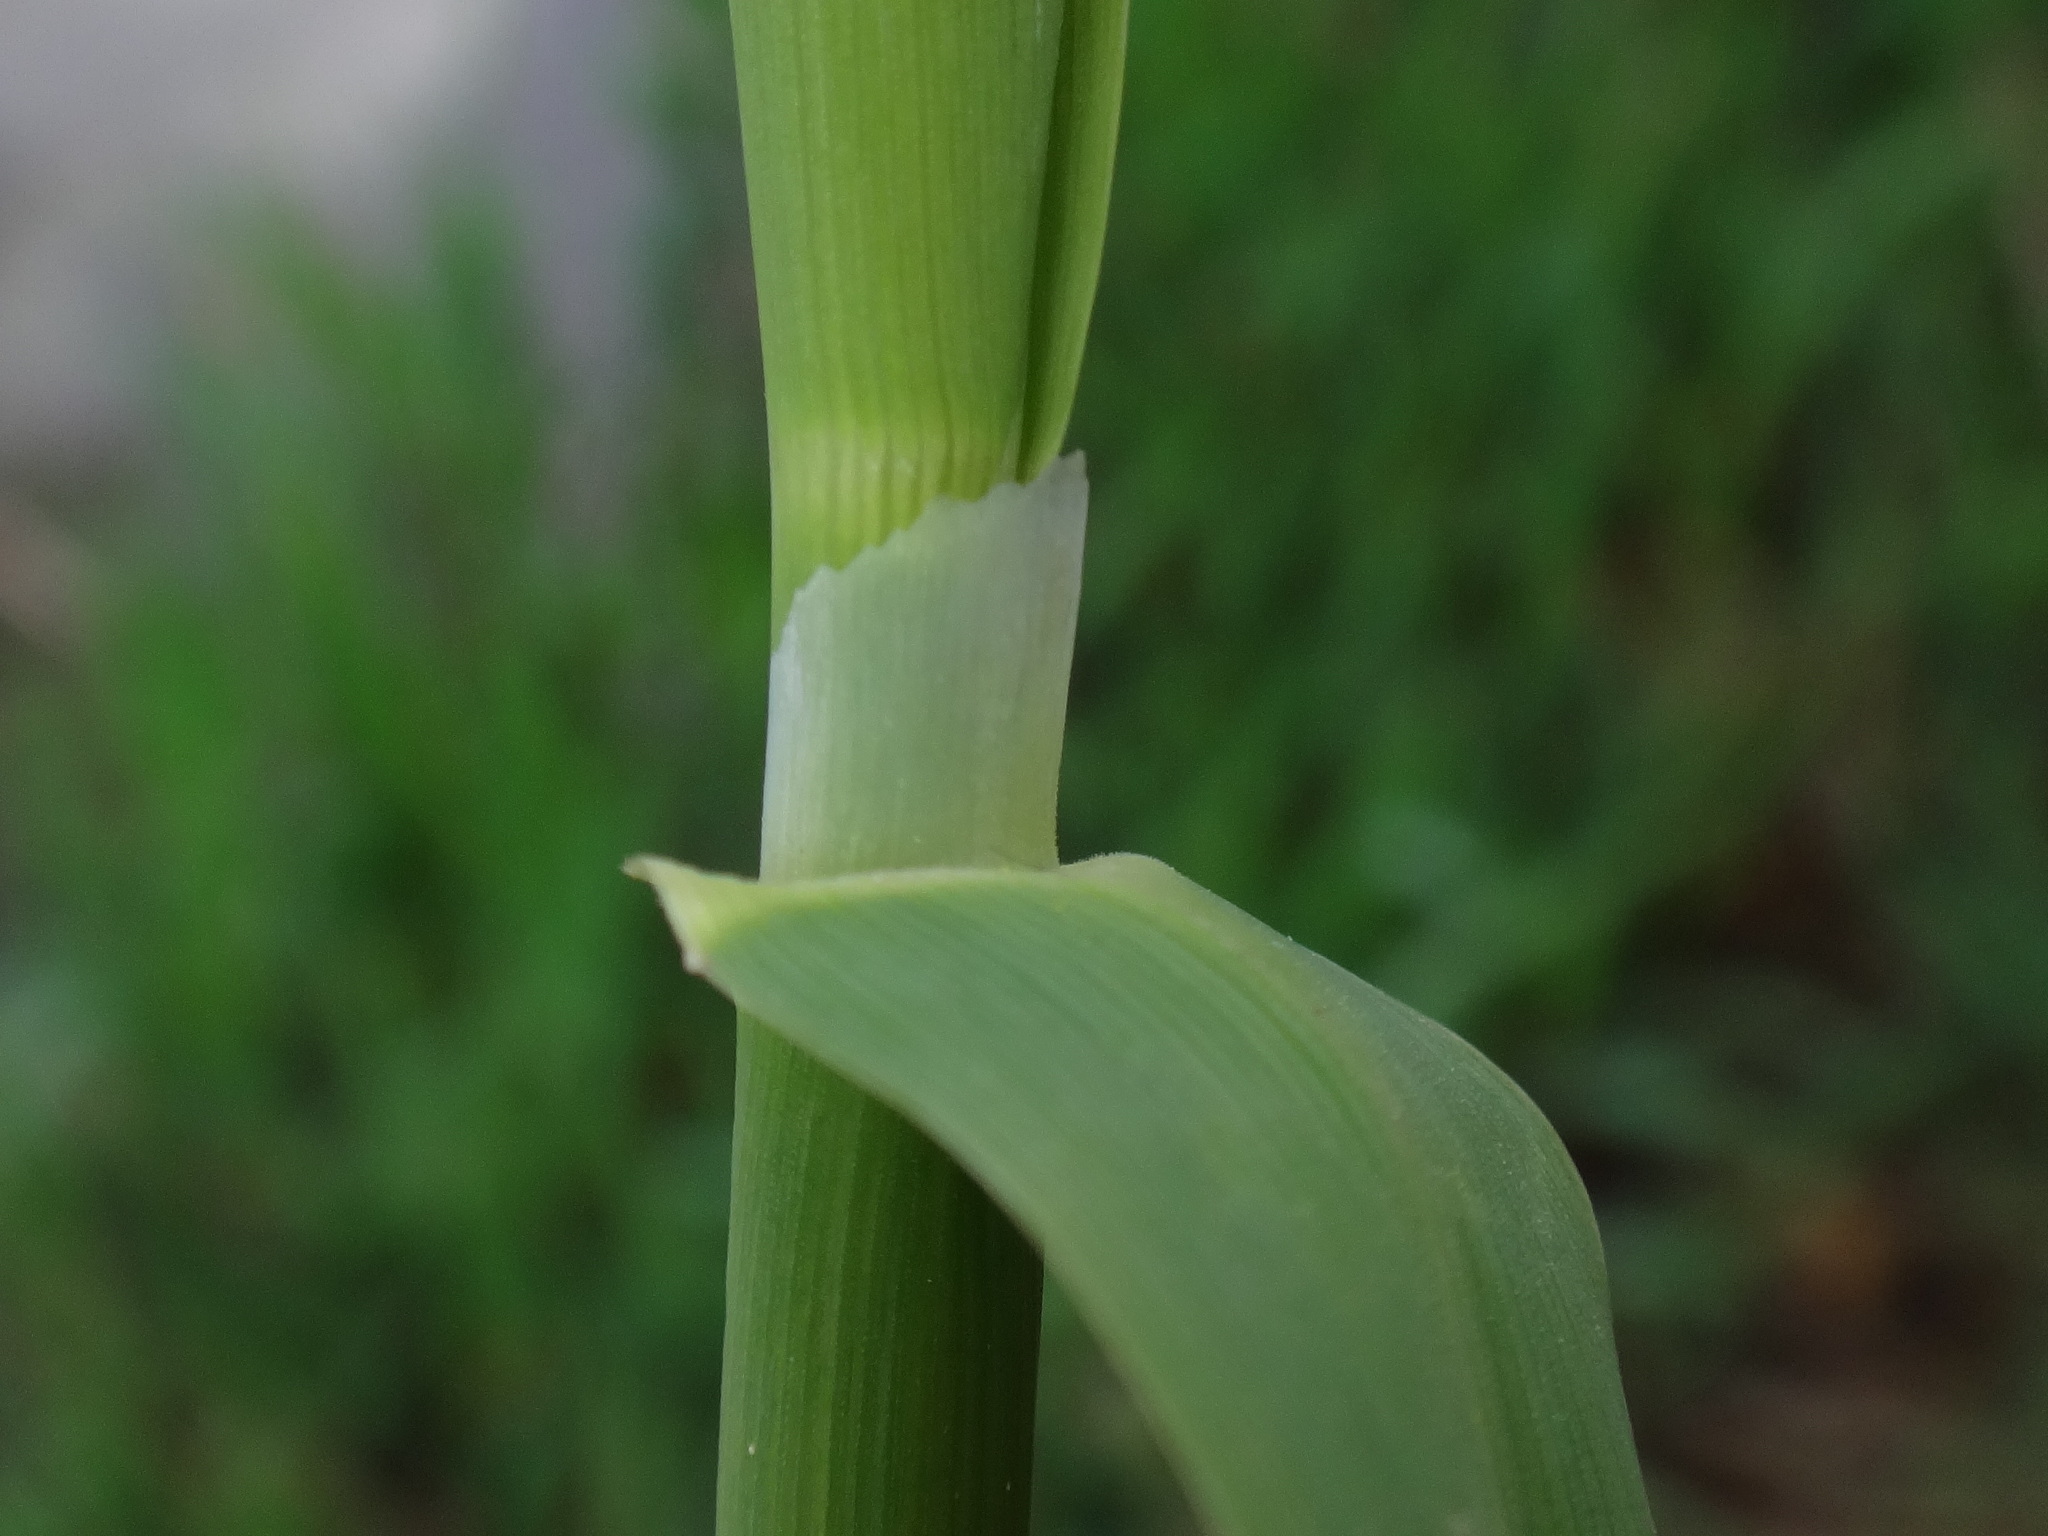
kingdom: Plantae
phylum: Tracheophyta
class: Liliopsida
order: Poales
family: Poaceae
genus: Phalaris
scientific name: Phalaris arundinacea
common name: Reed canary-grass
